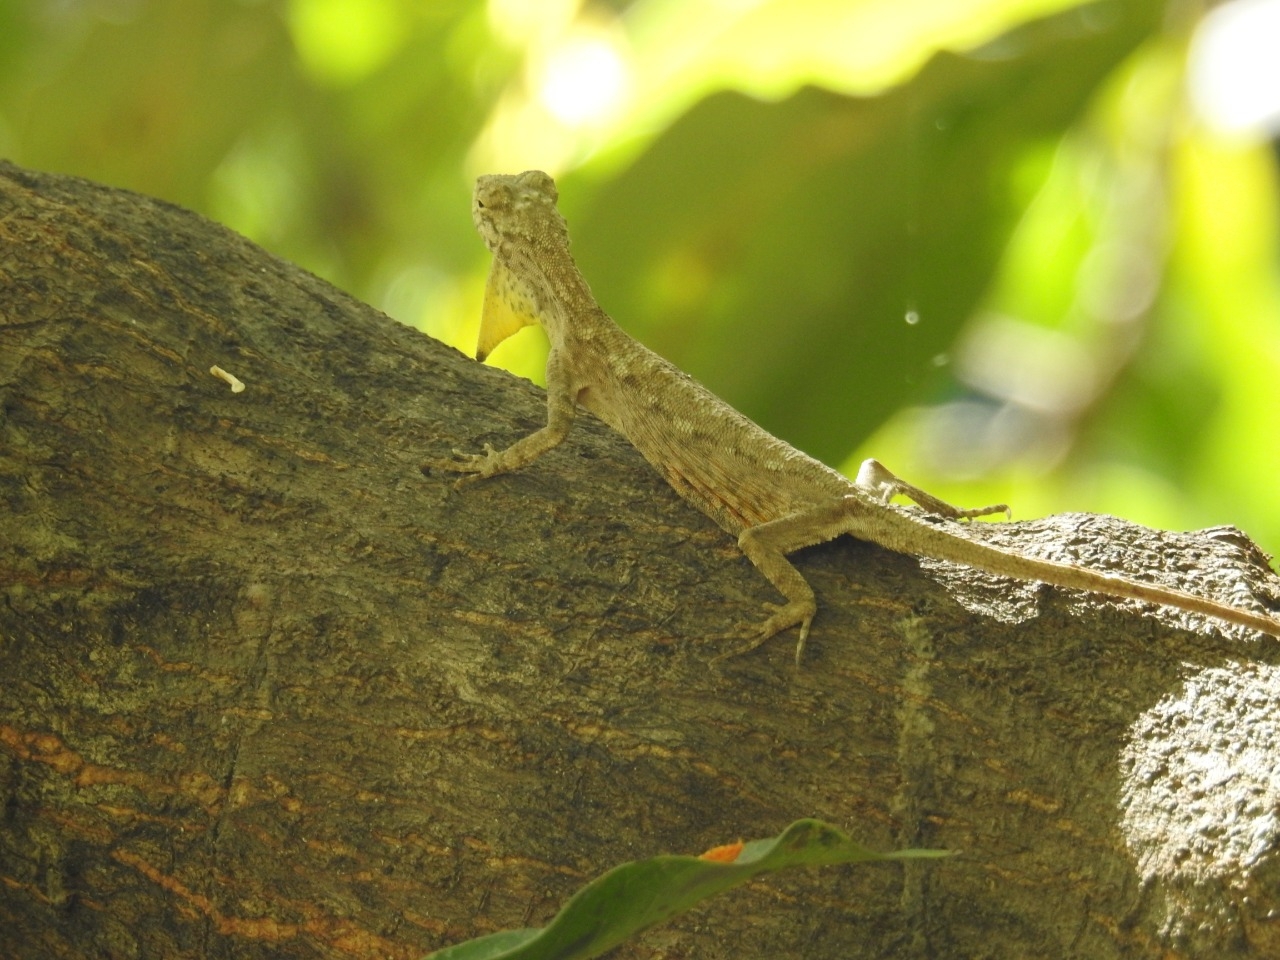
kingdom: Animalia
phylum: Chordata
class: Squamata
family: Agamidae
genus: Draco
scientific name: Draco timoriensis
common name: Timor flying dragon
